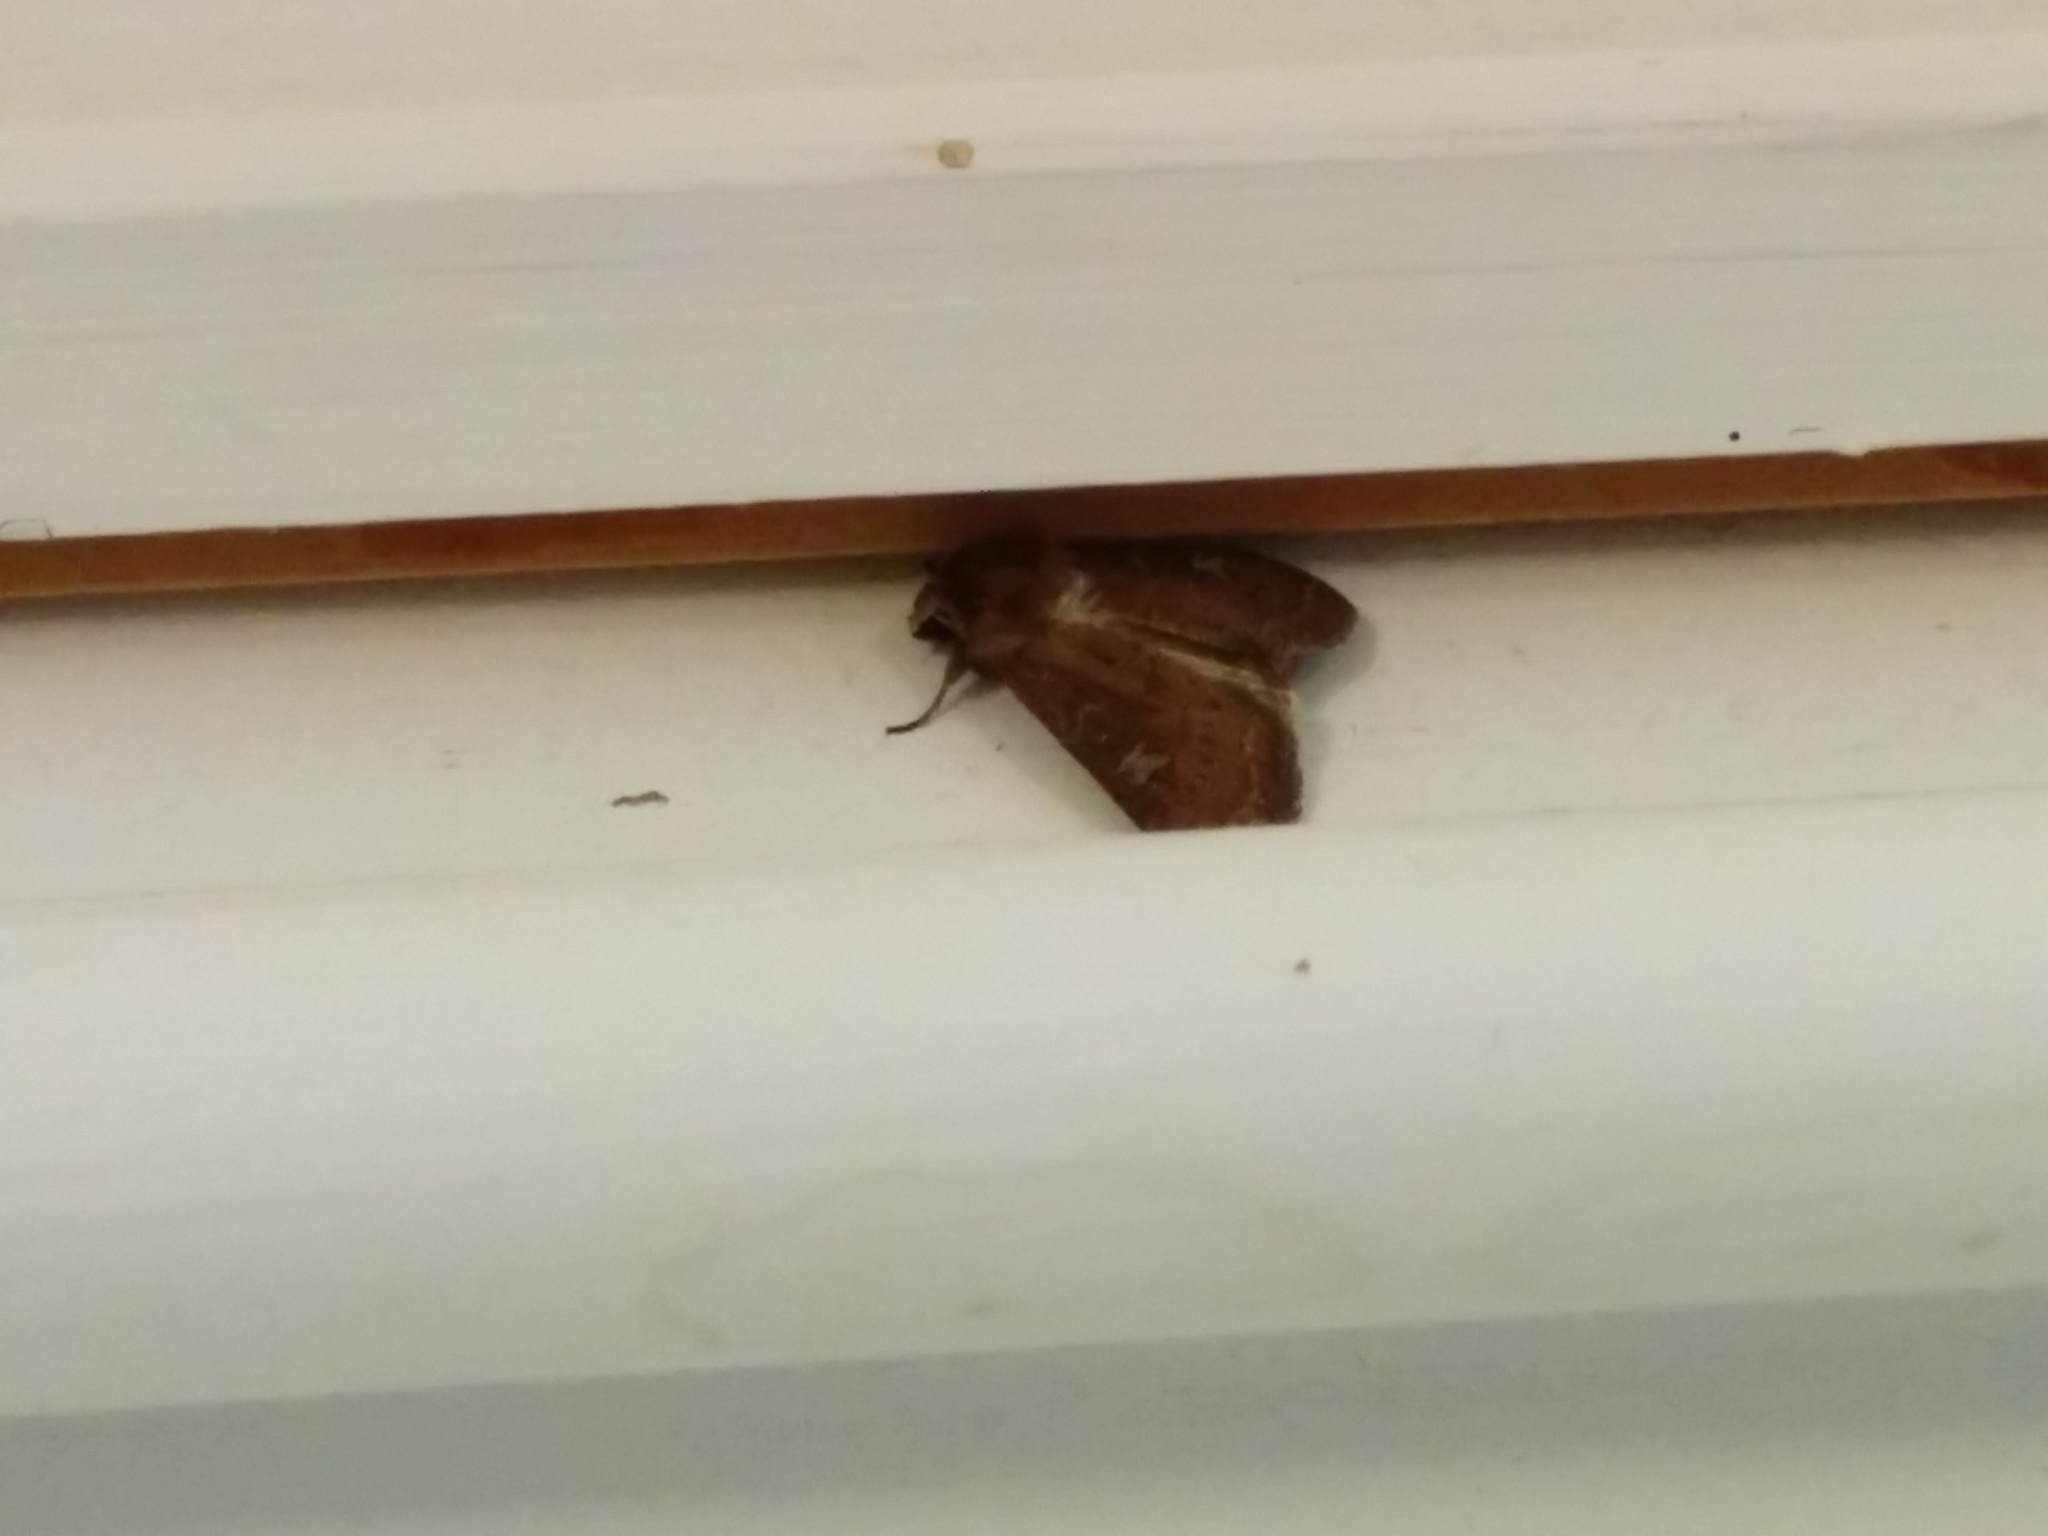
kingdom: Animalia
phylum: Arthropoda
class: Insecta
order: Lepidoptera
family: Noctuidae
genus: Xestia
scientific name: Xestia xanthographa
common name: Square-spot rustic
